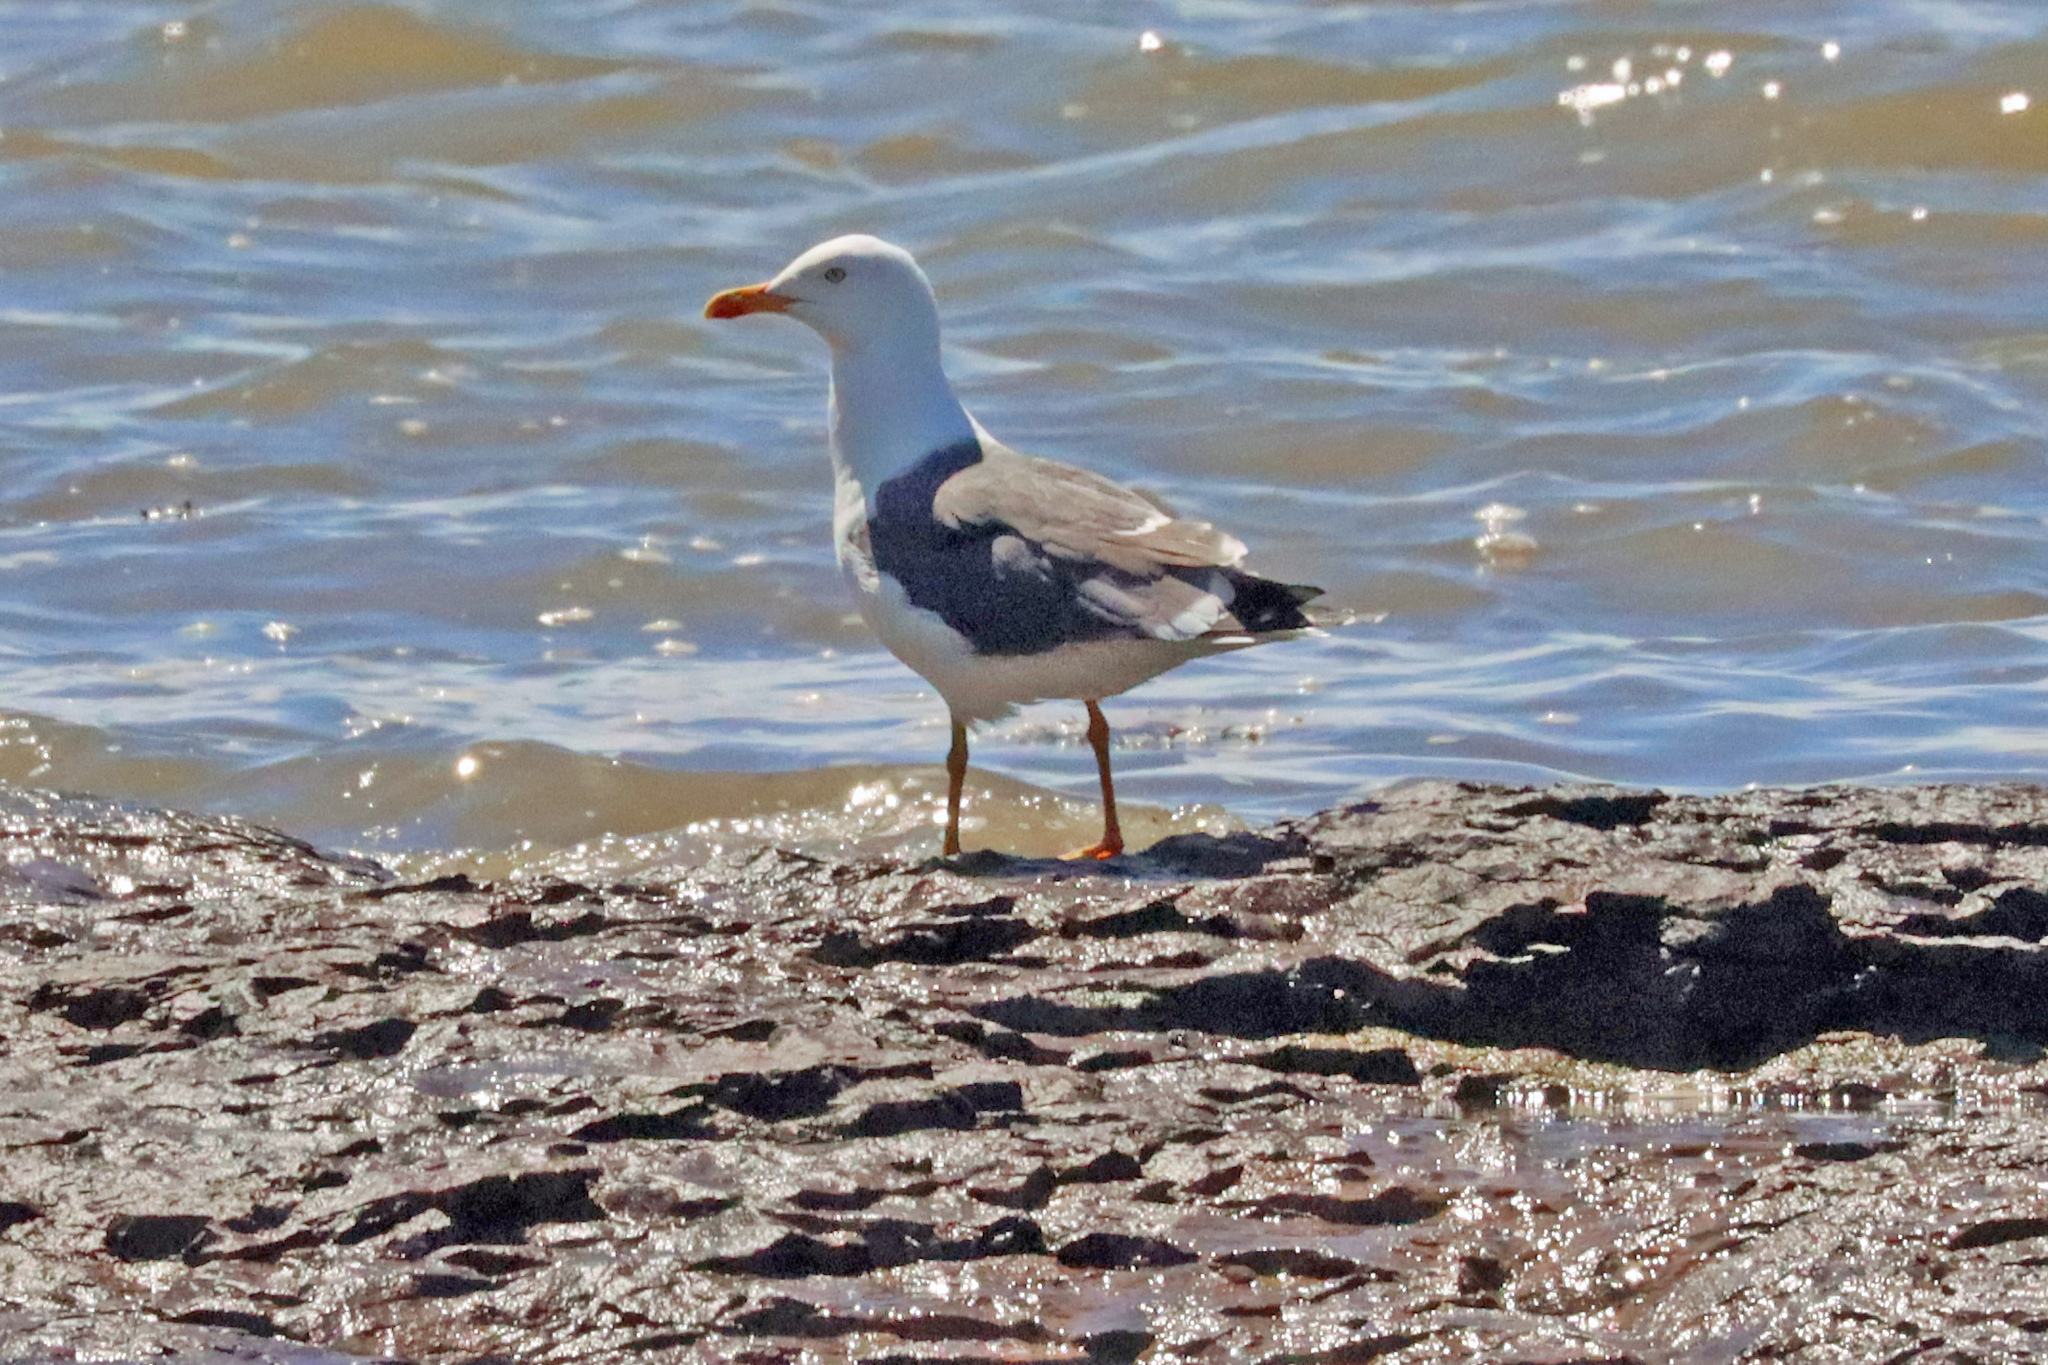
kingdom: Animalia
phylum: Chordata
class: Aves
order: Charadriiformes
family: Laridae
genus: Larus
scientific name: Larus fuscus
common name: Lesser black-backed gull
